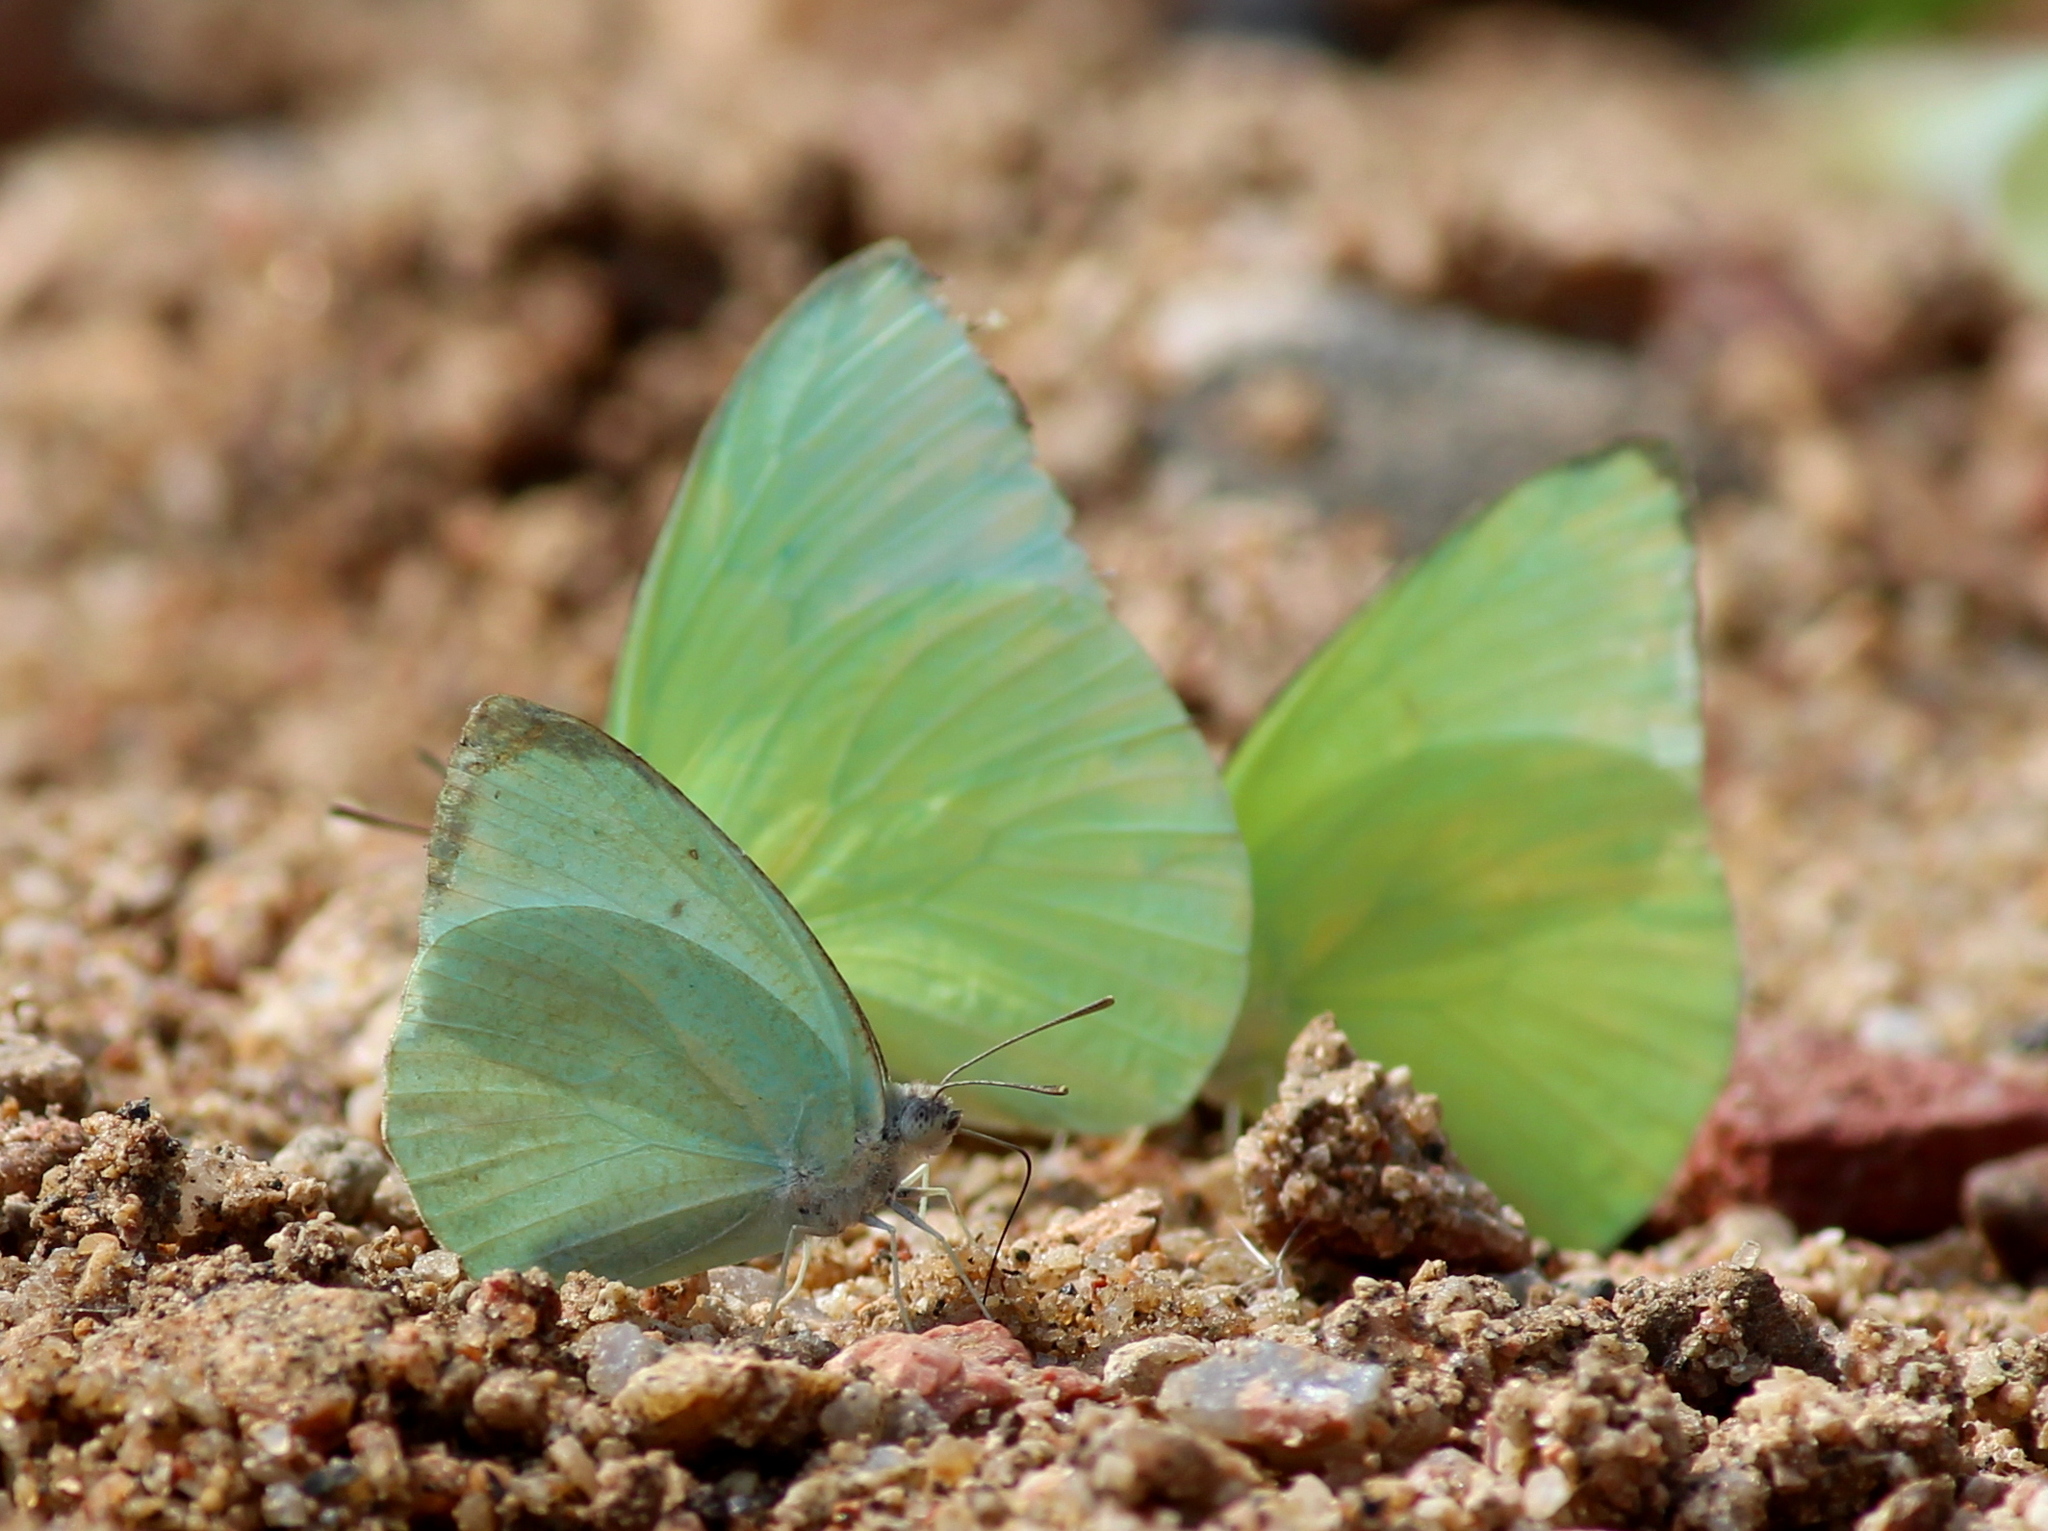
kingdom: Animalia
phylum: Arthropoda
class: Insecta
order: Lepidoptera
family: Pieridae
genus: Catopsilia
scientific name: Catopsilia pyranthe
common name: Mottled emigrant
